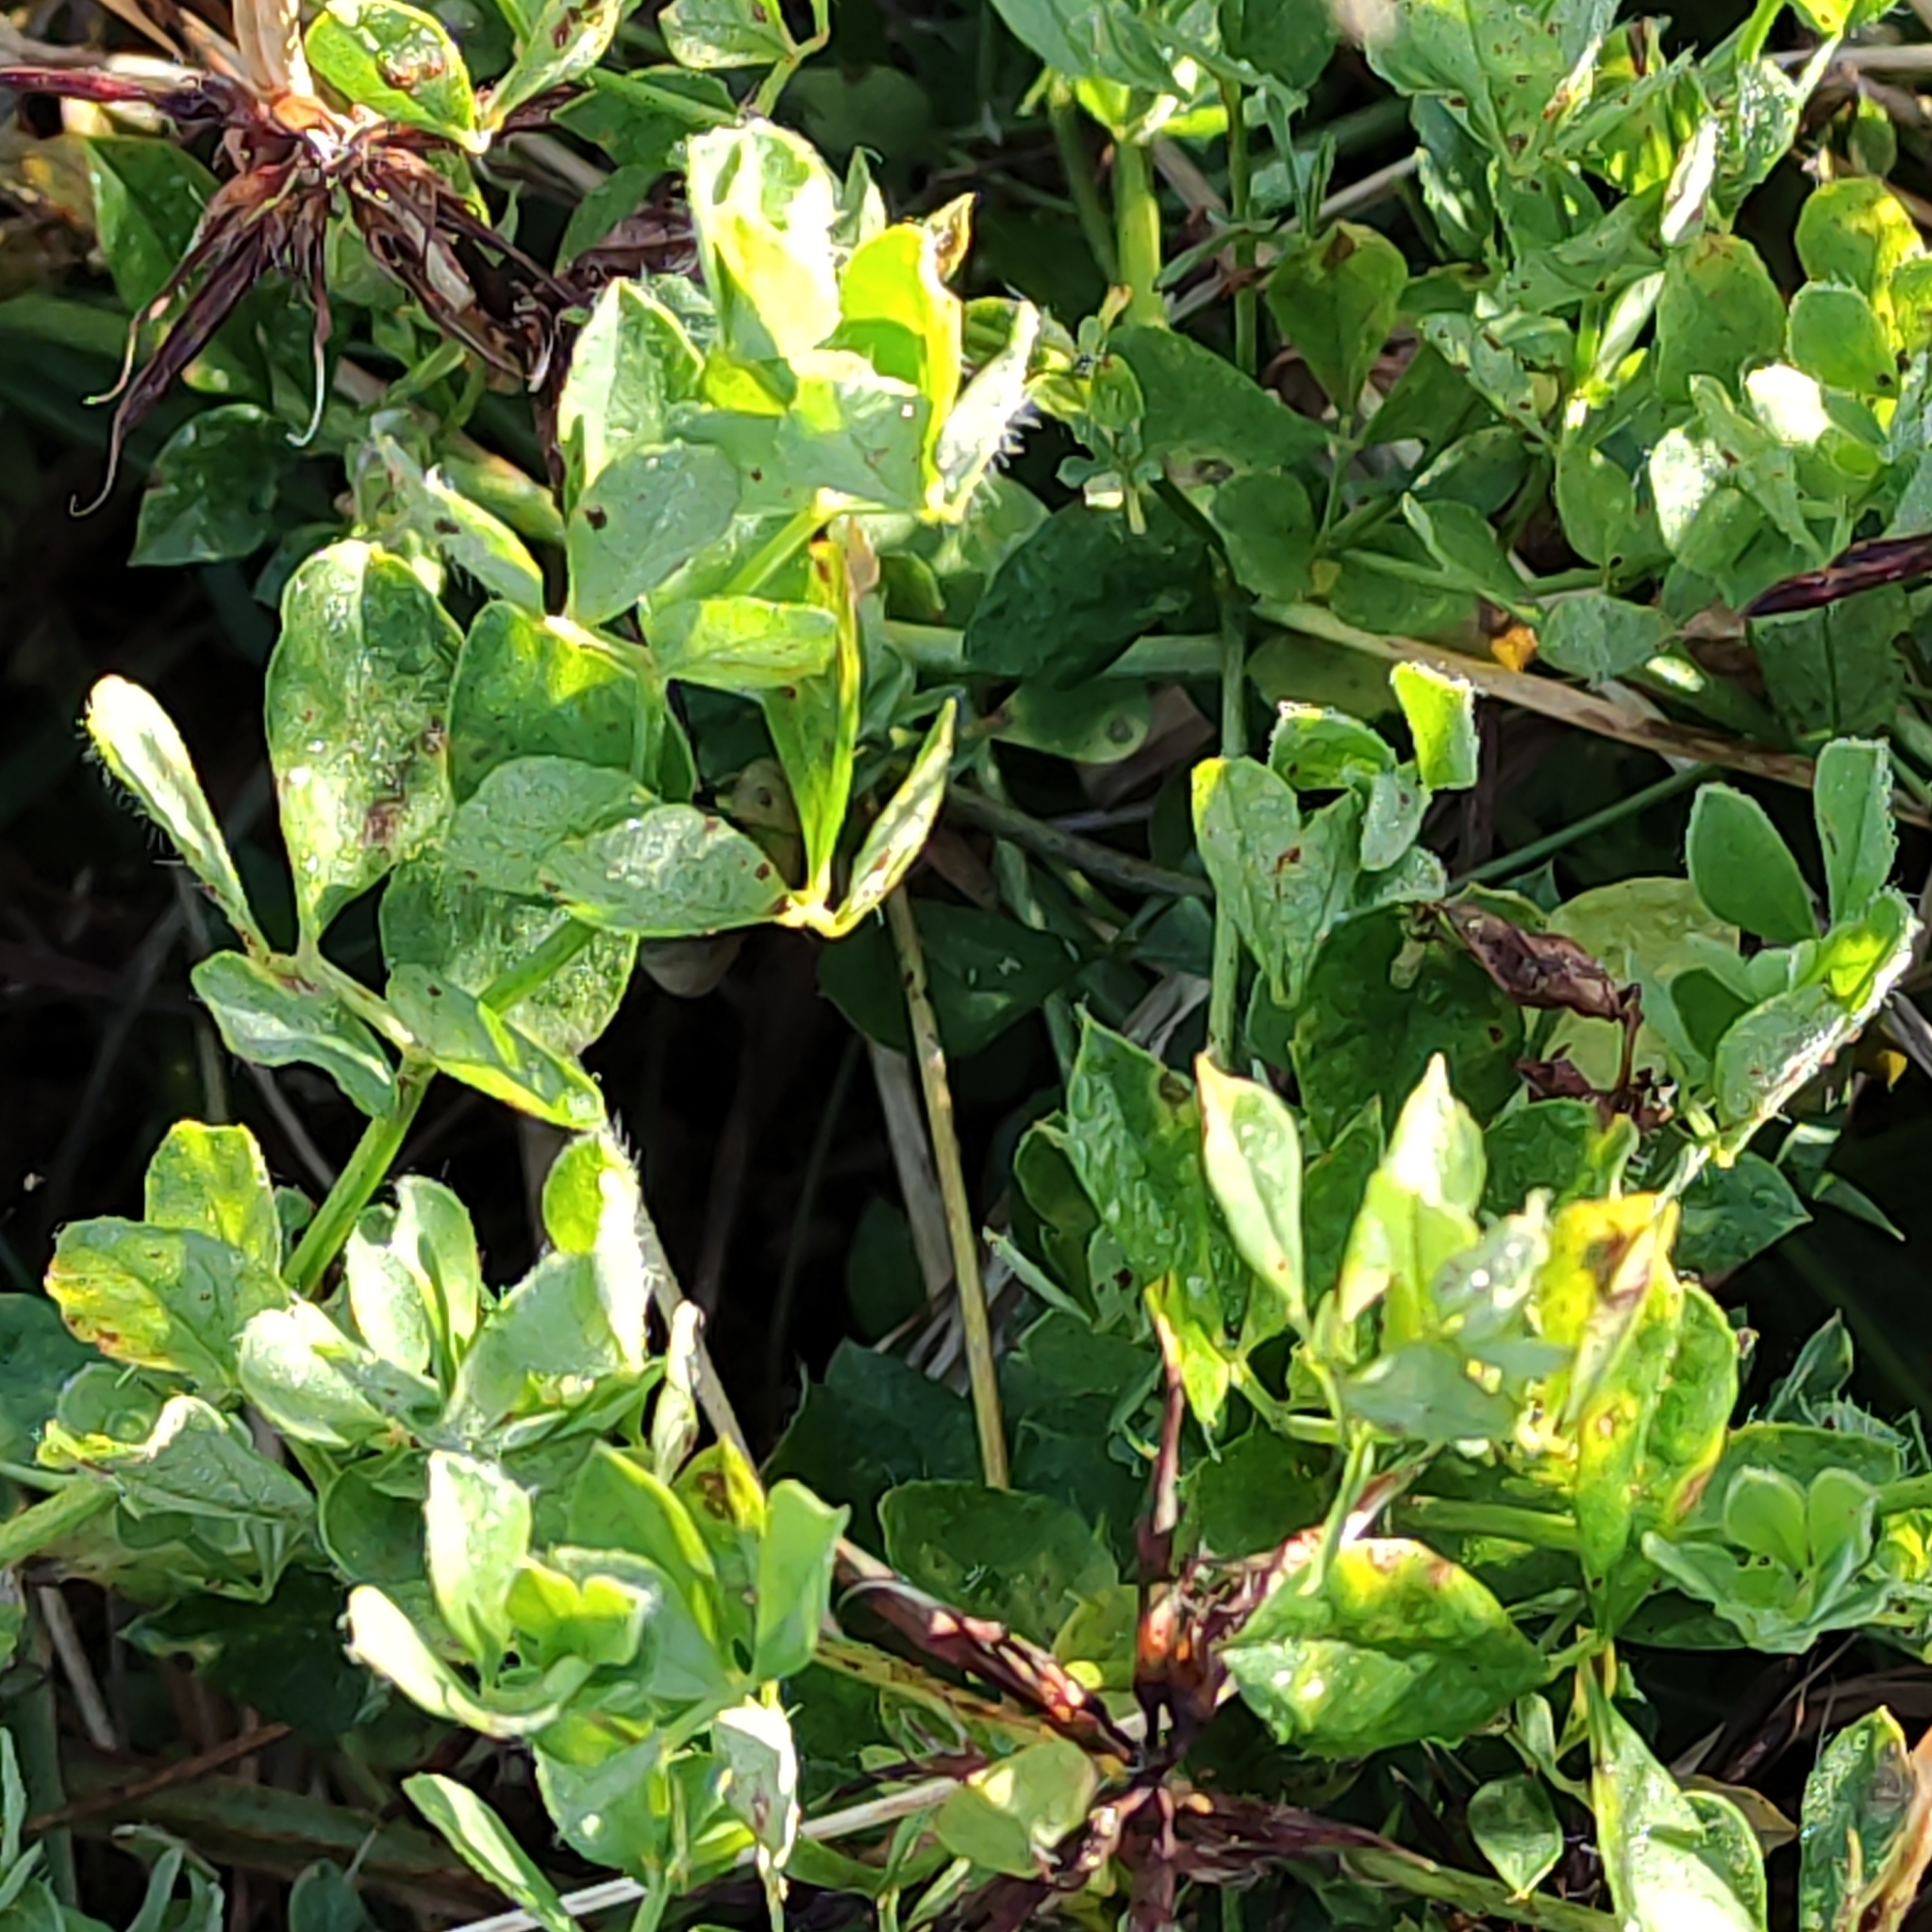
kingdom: Plantae
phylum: Tracheophyta
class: Magnoliopsida
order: Fabales
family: Fabaceae
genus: Lotus
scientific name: Lotus pedunculatus
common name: Greater birdsfoot-trefoil
